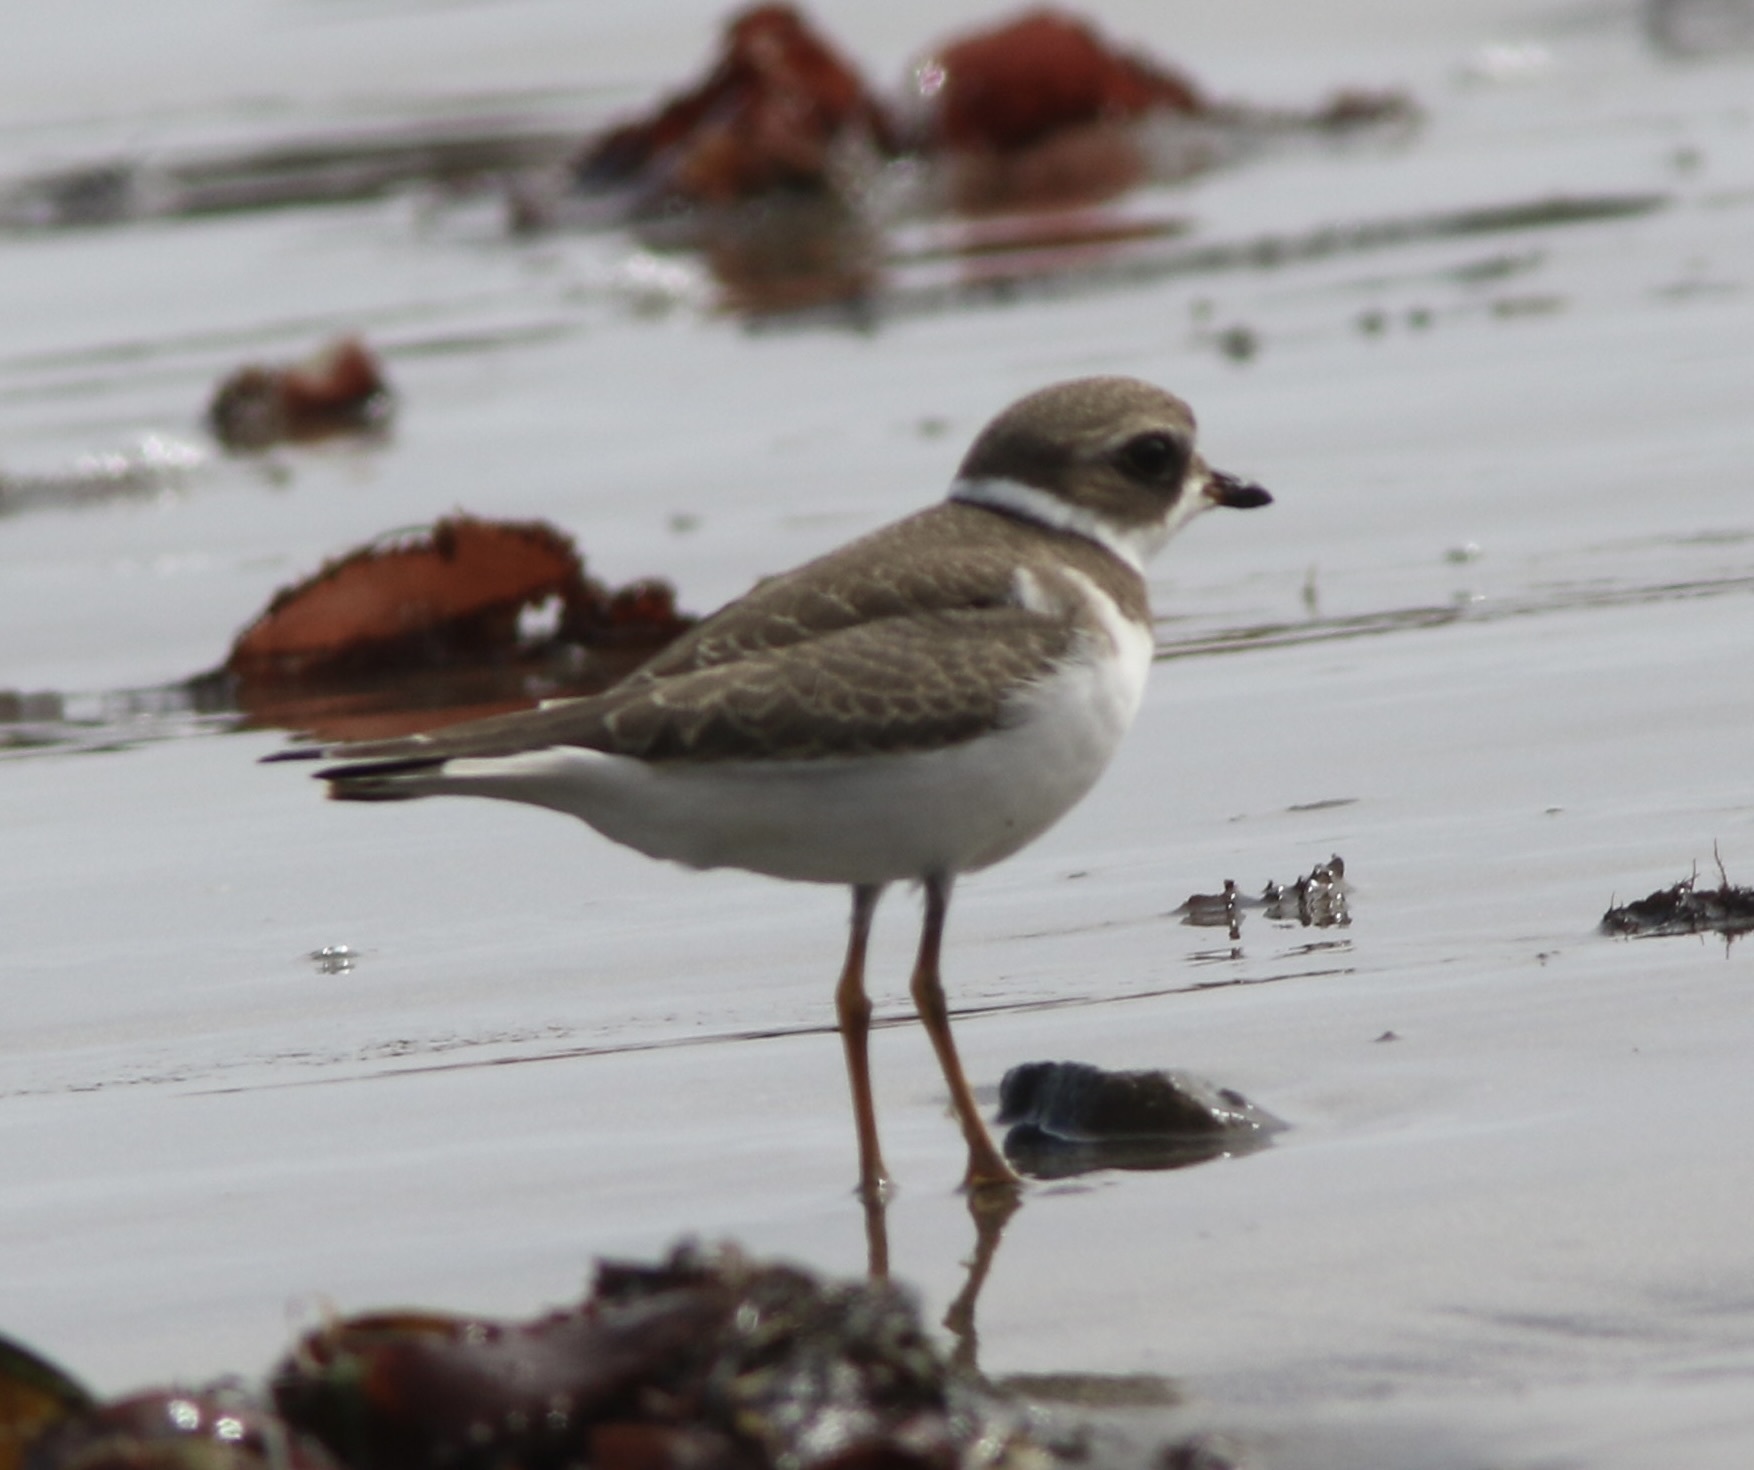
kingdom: Animalia
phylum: Chordata
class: Aves
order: Charadriiformes
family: Charadriidae
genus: Charadrius
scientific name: Charadrius semipalmatus
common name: Semipalmated plover
